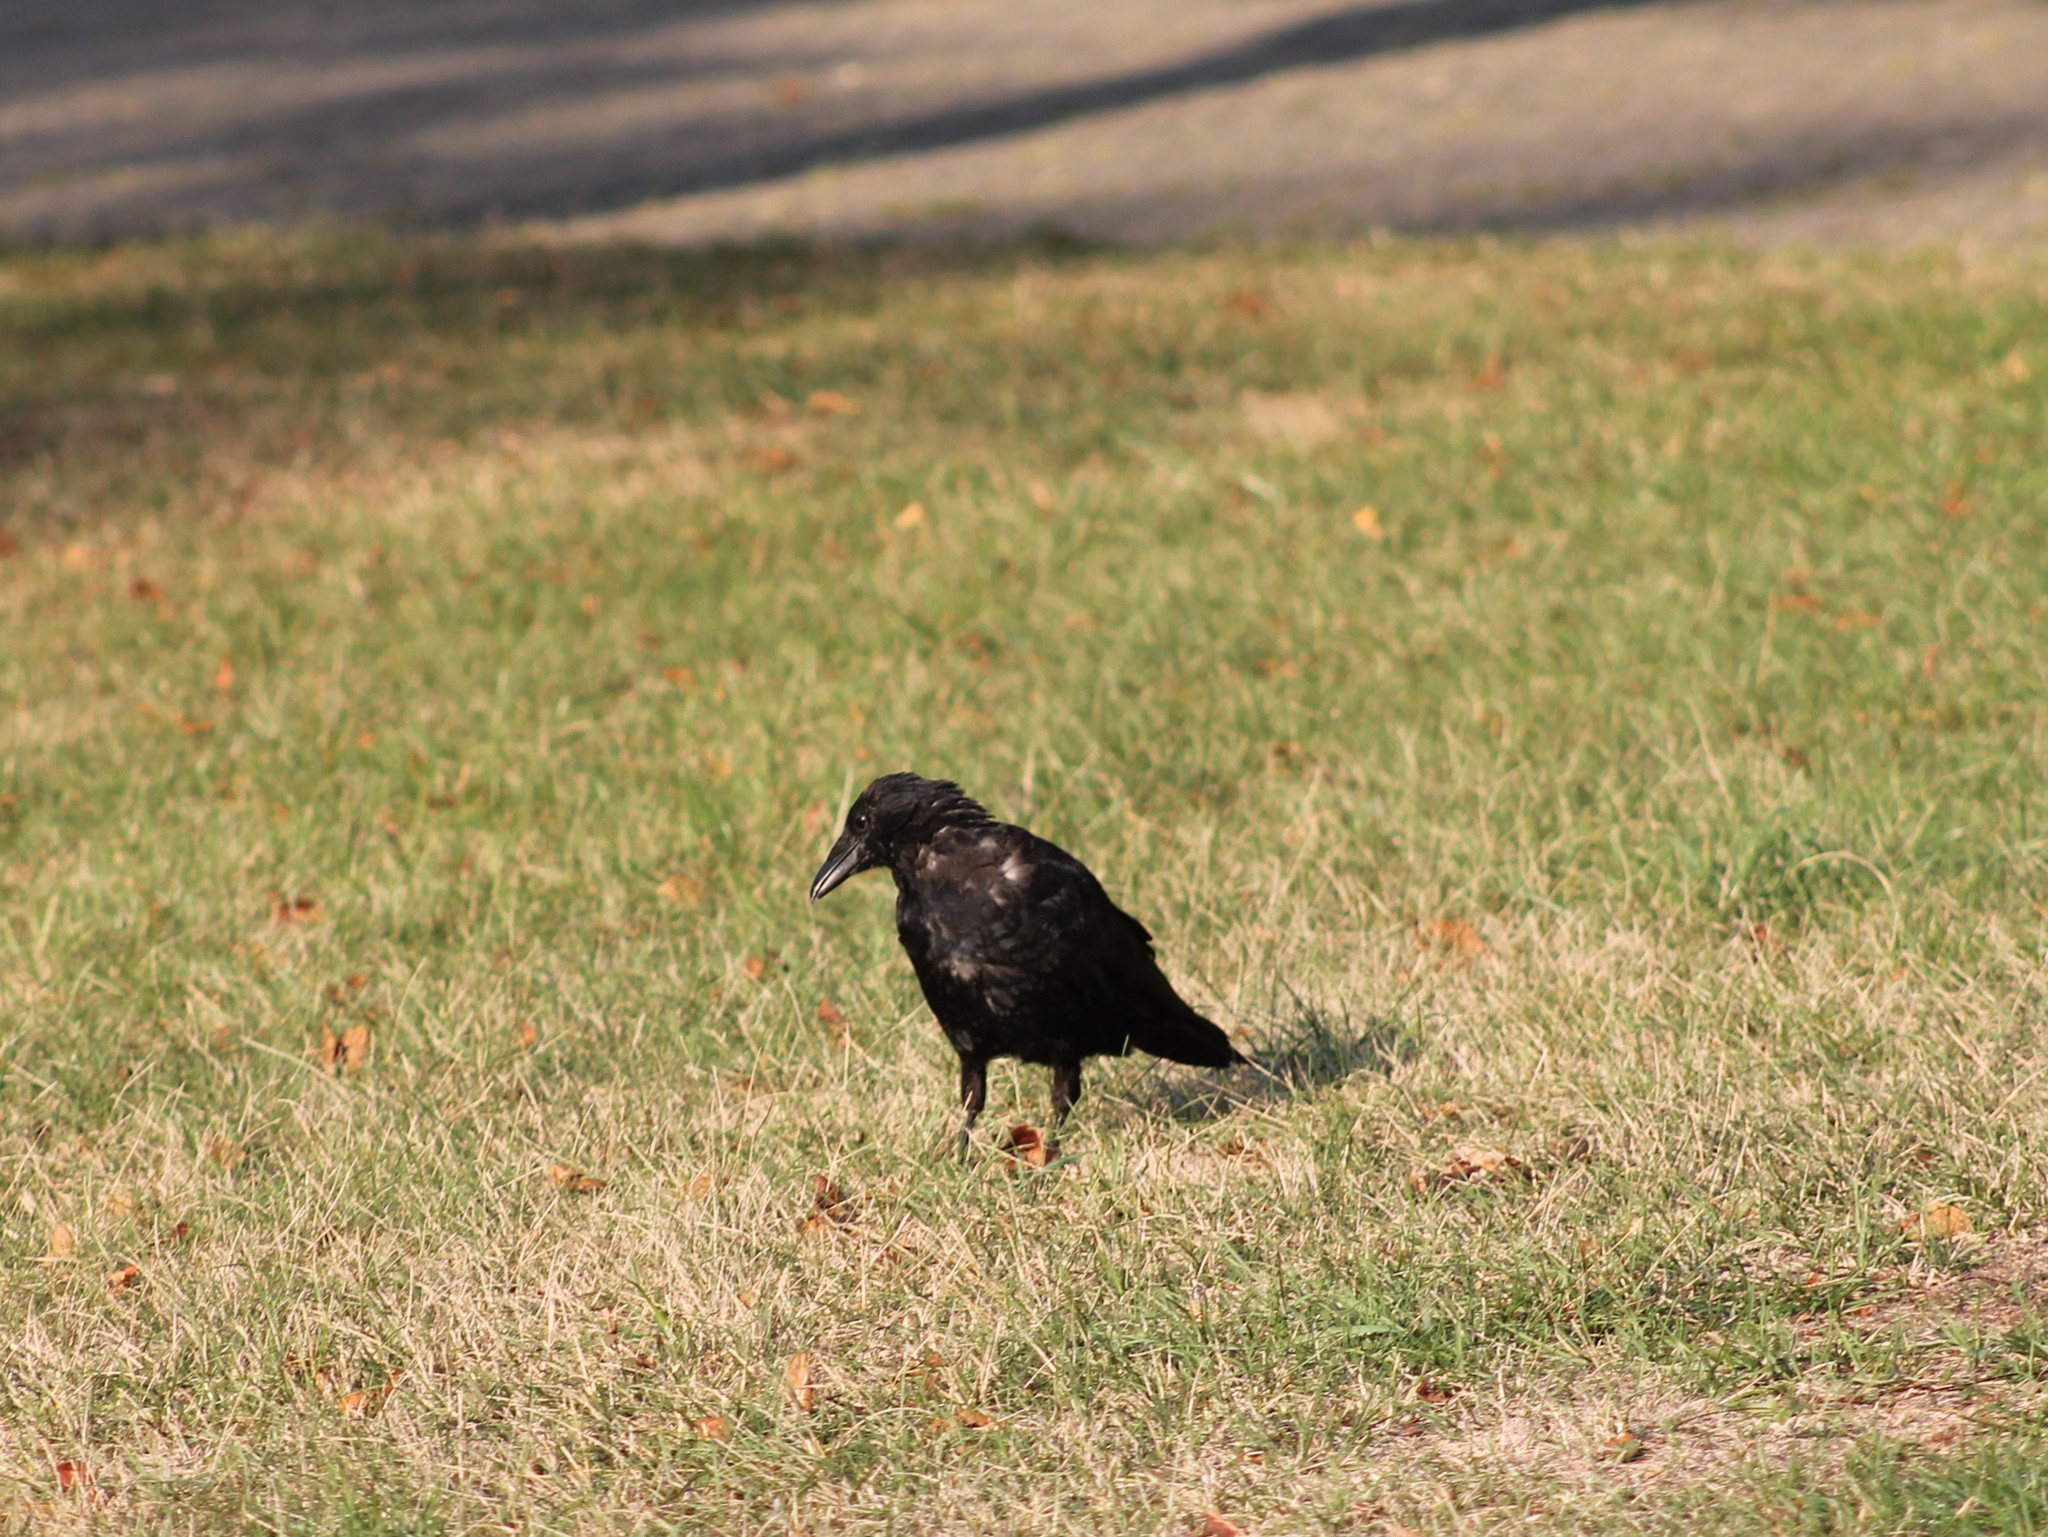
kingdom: Animalia
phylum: Chordata
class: Aves
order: Passeriformes
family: Corvidae
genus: Corvus
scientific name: Corvus corone
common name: Carrion crow
